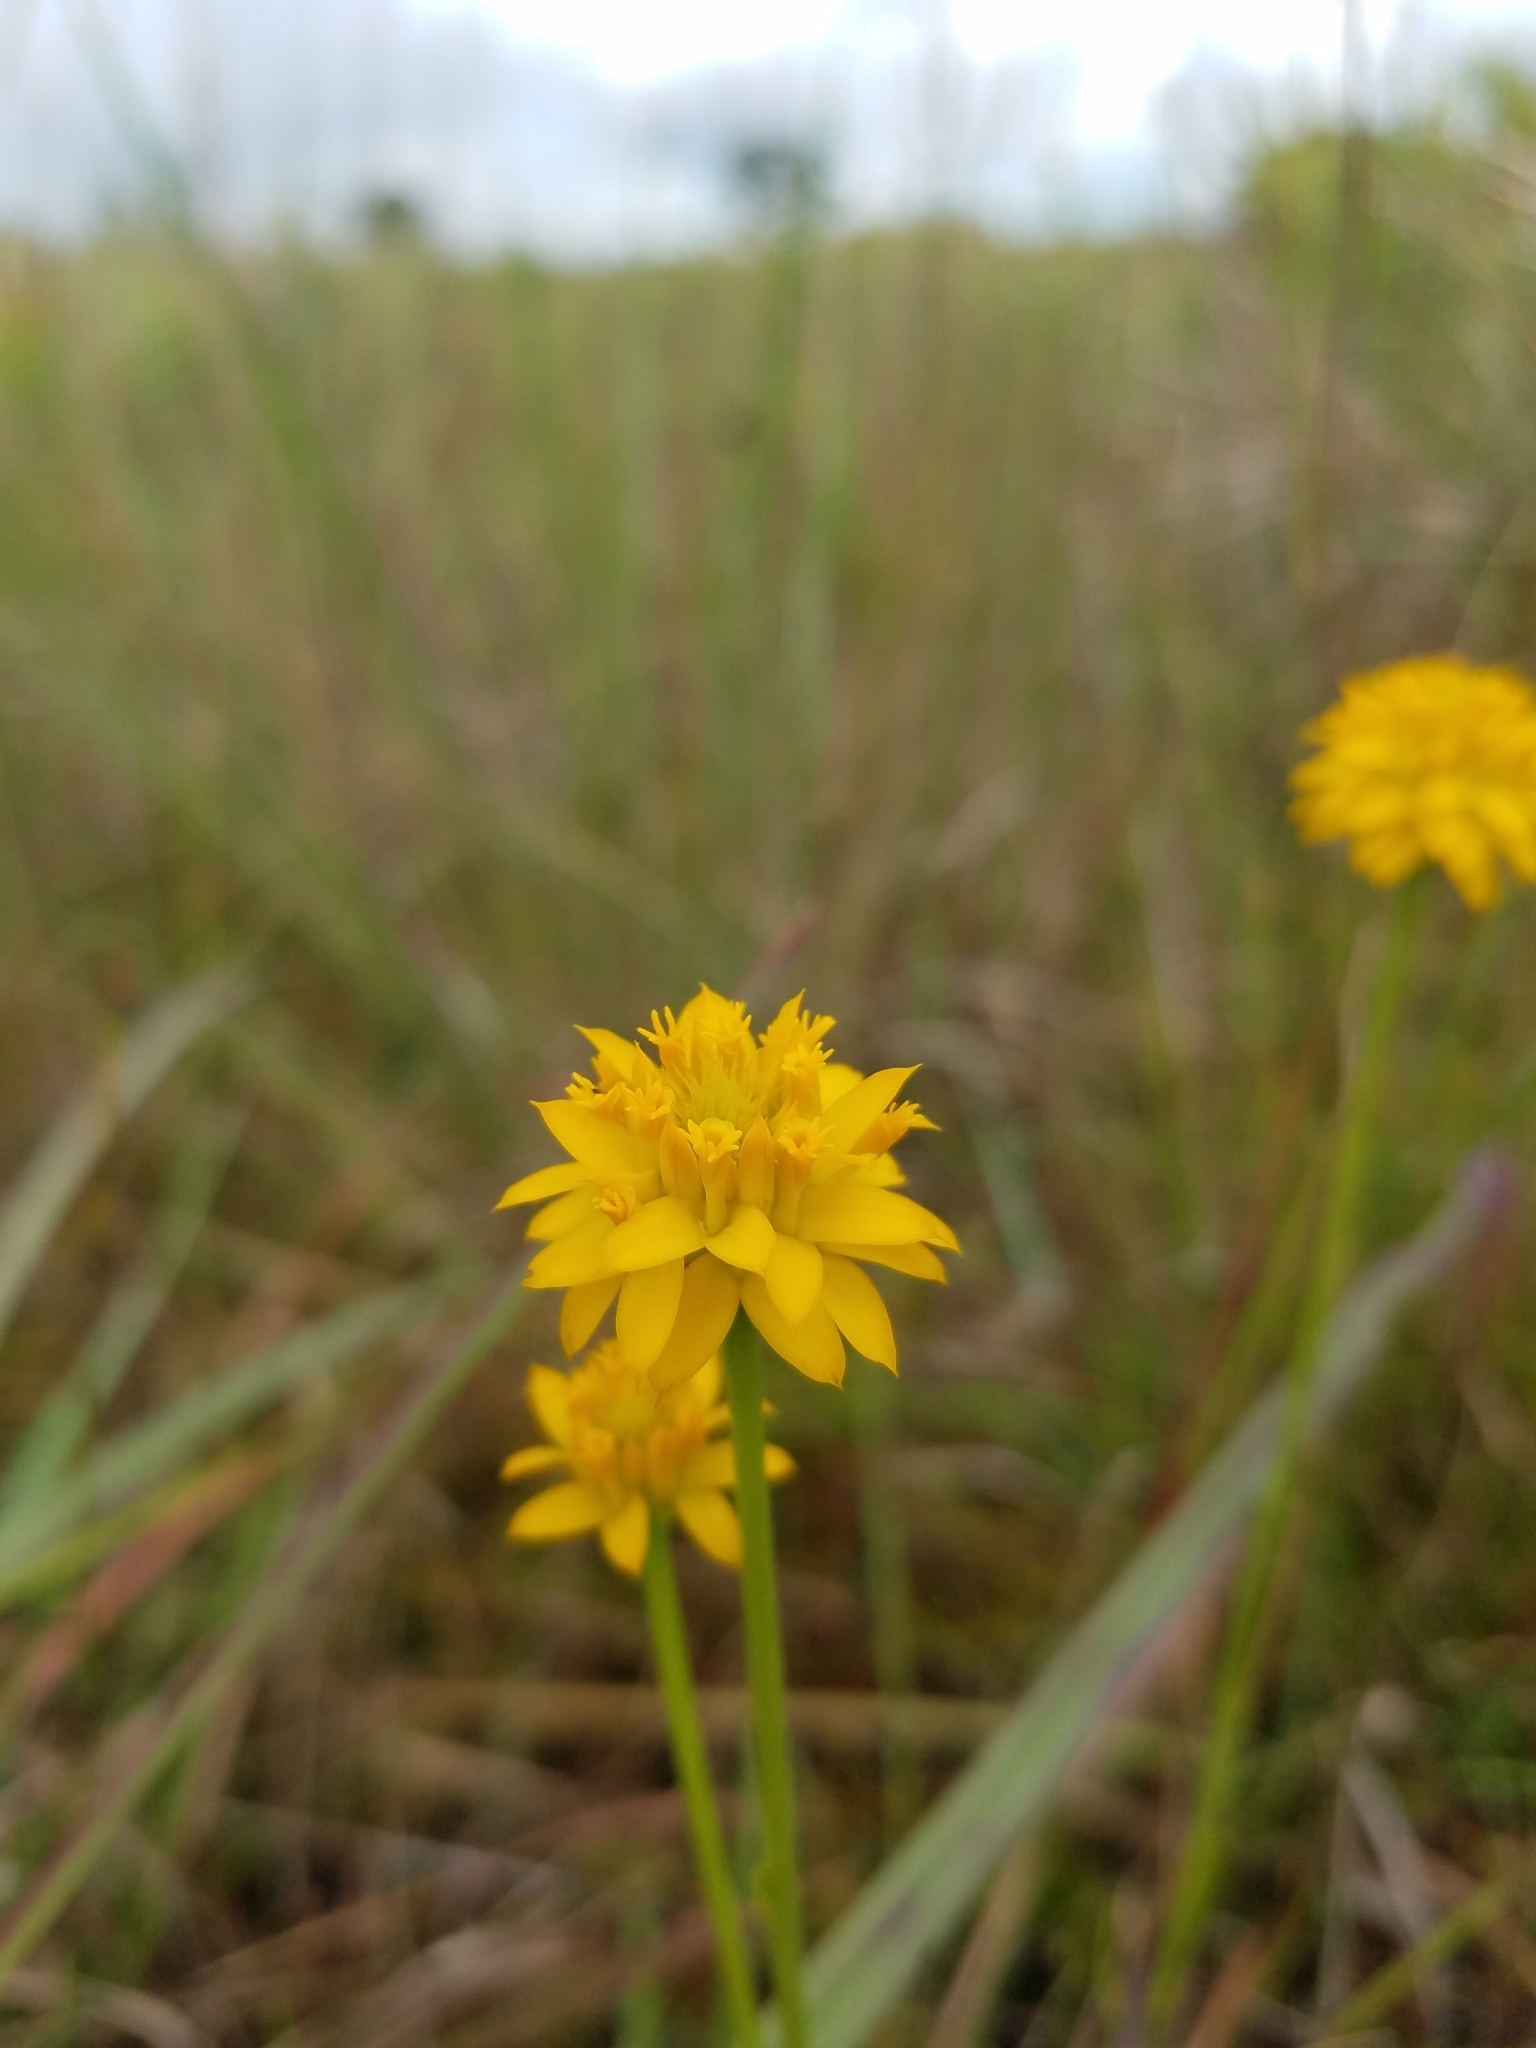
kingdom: Plantae
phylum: Tracheophyta
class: Magnoliopsida
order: Fabales
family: Polygalaceae
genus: Polygala
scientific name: Polygala rugelii
